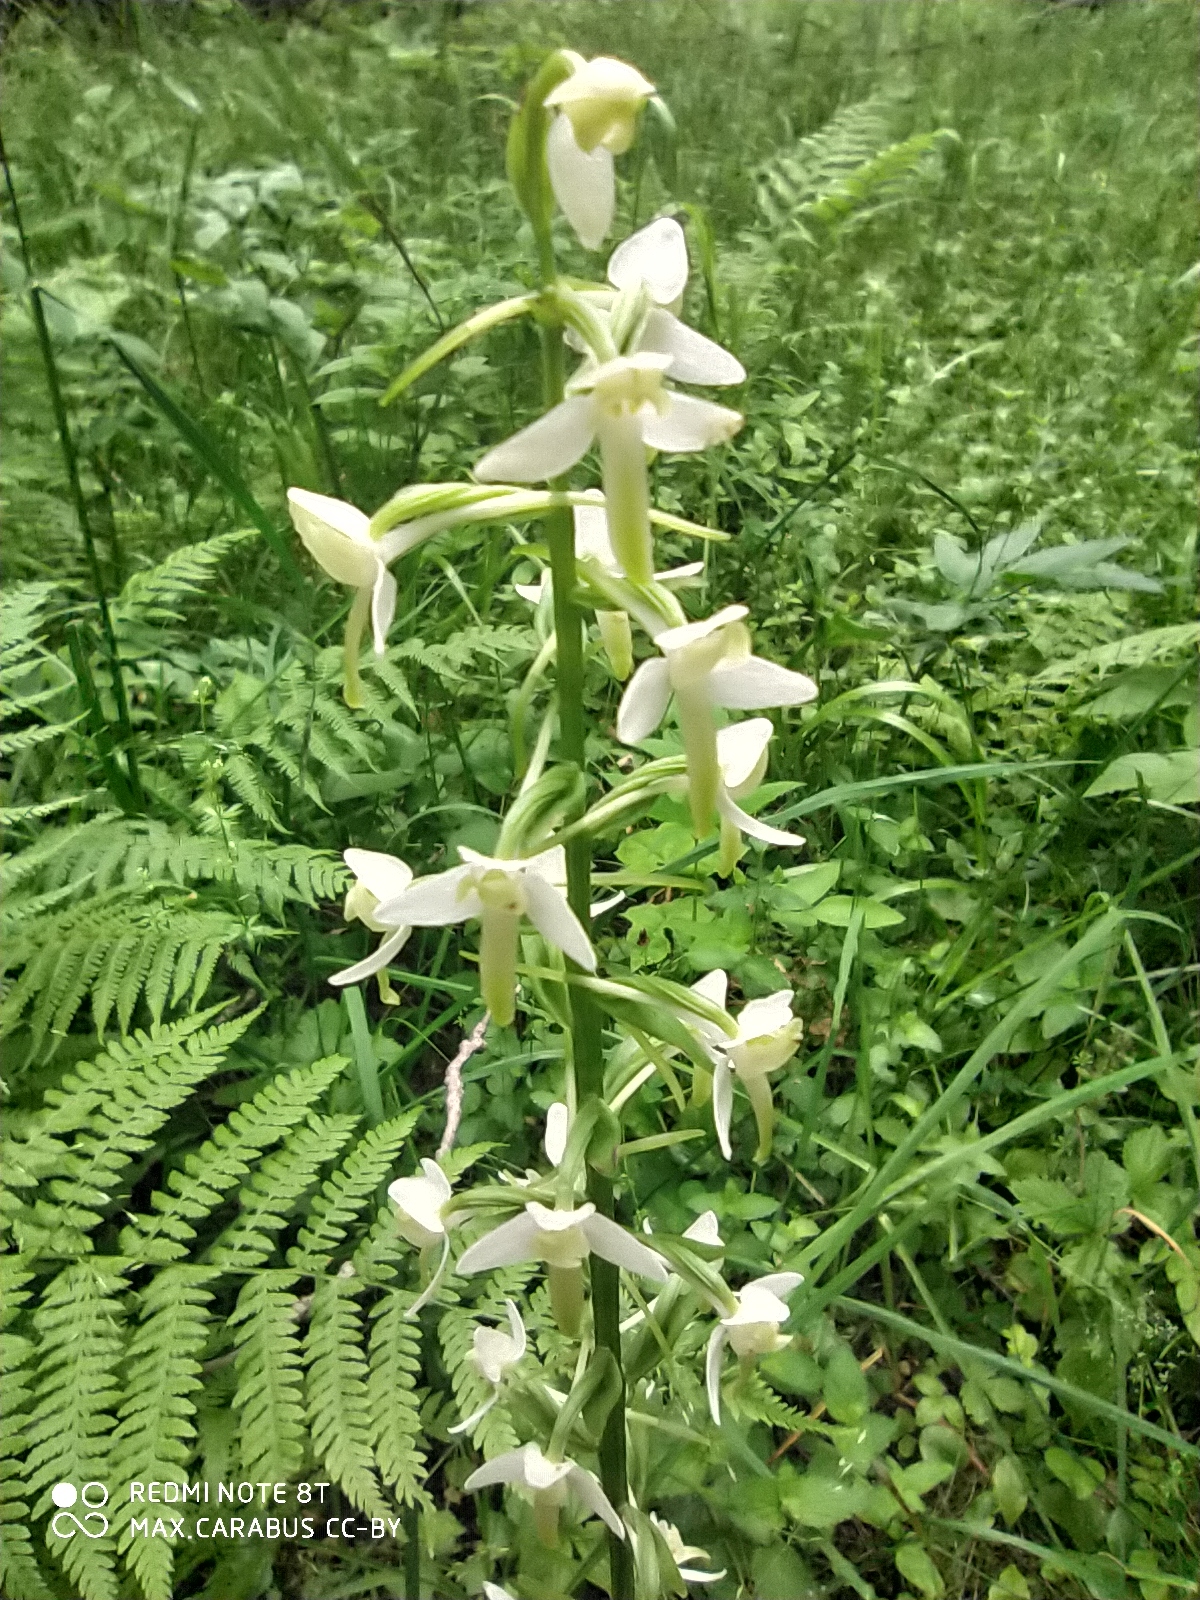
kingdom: Plantae
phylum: Tracheophyta
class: Liliopsida
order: Asparagales
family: Orchidaceae
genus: Platanthera
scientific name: Platanthera bifolia
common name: Lesser butterfly-orchid
